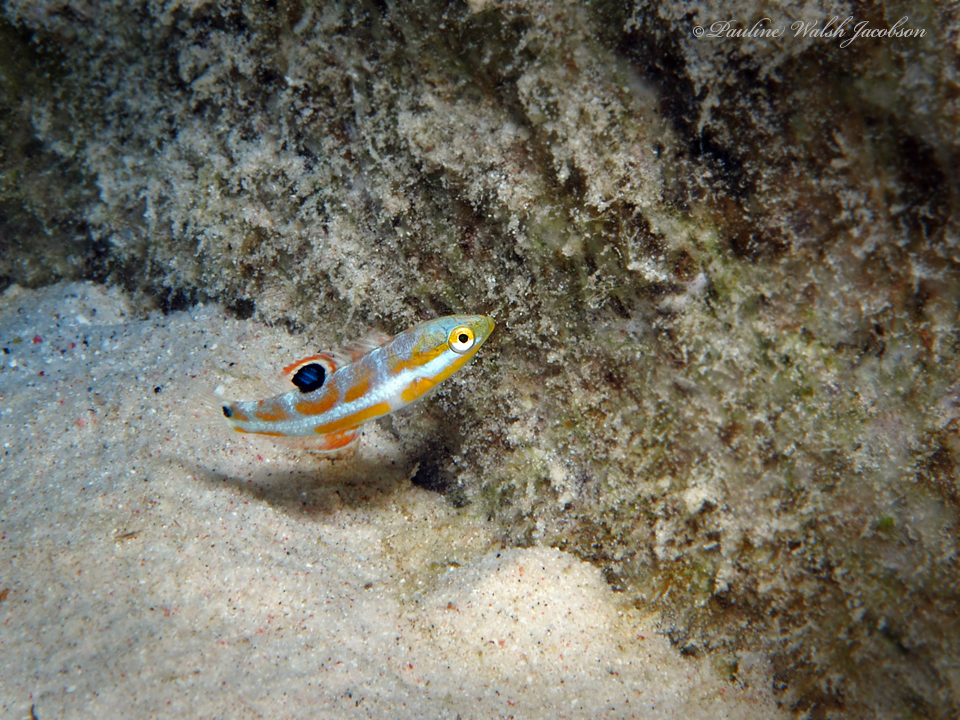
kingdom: Animalia
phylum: Chordata
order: Perciformes
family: Labridae
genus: Halichoeres
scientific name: Halichoeres radiatus
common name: Puddingwife
